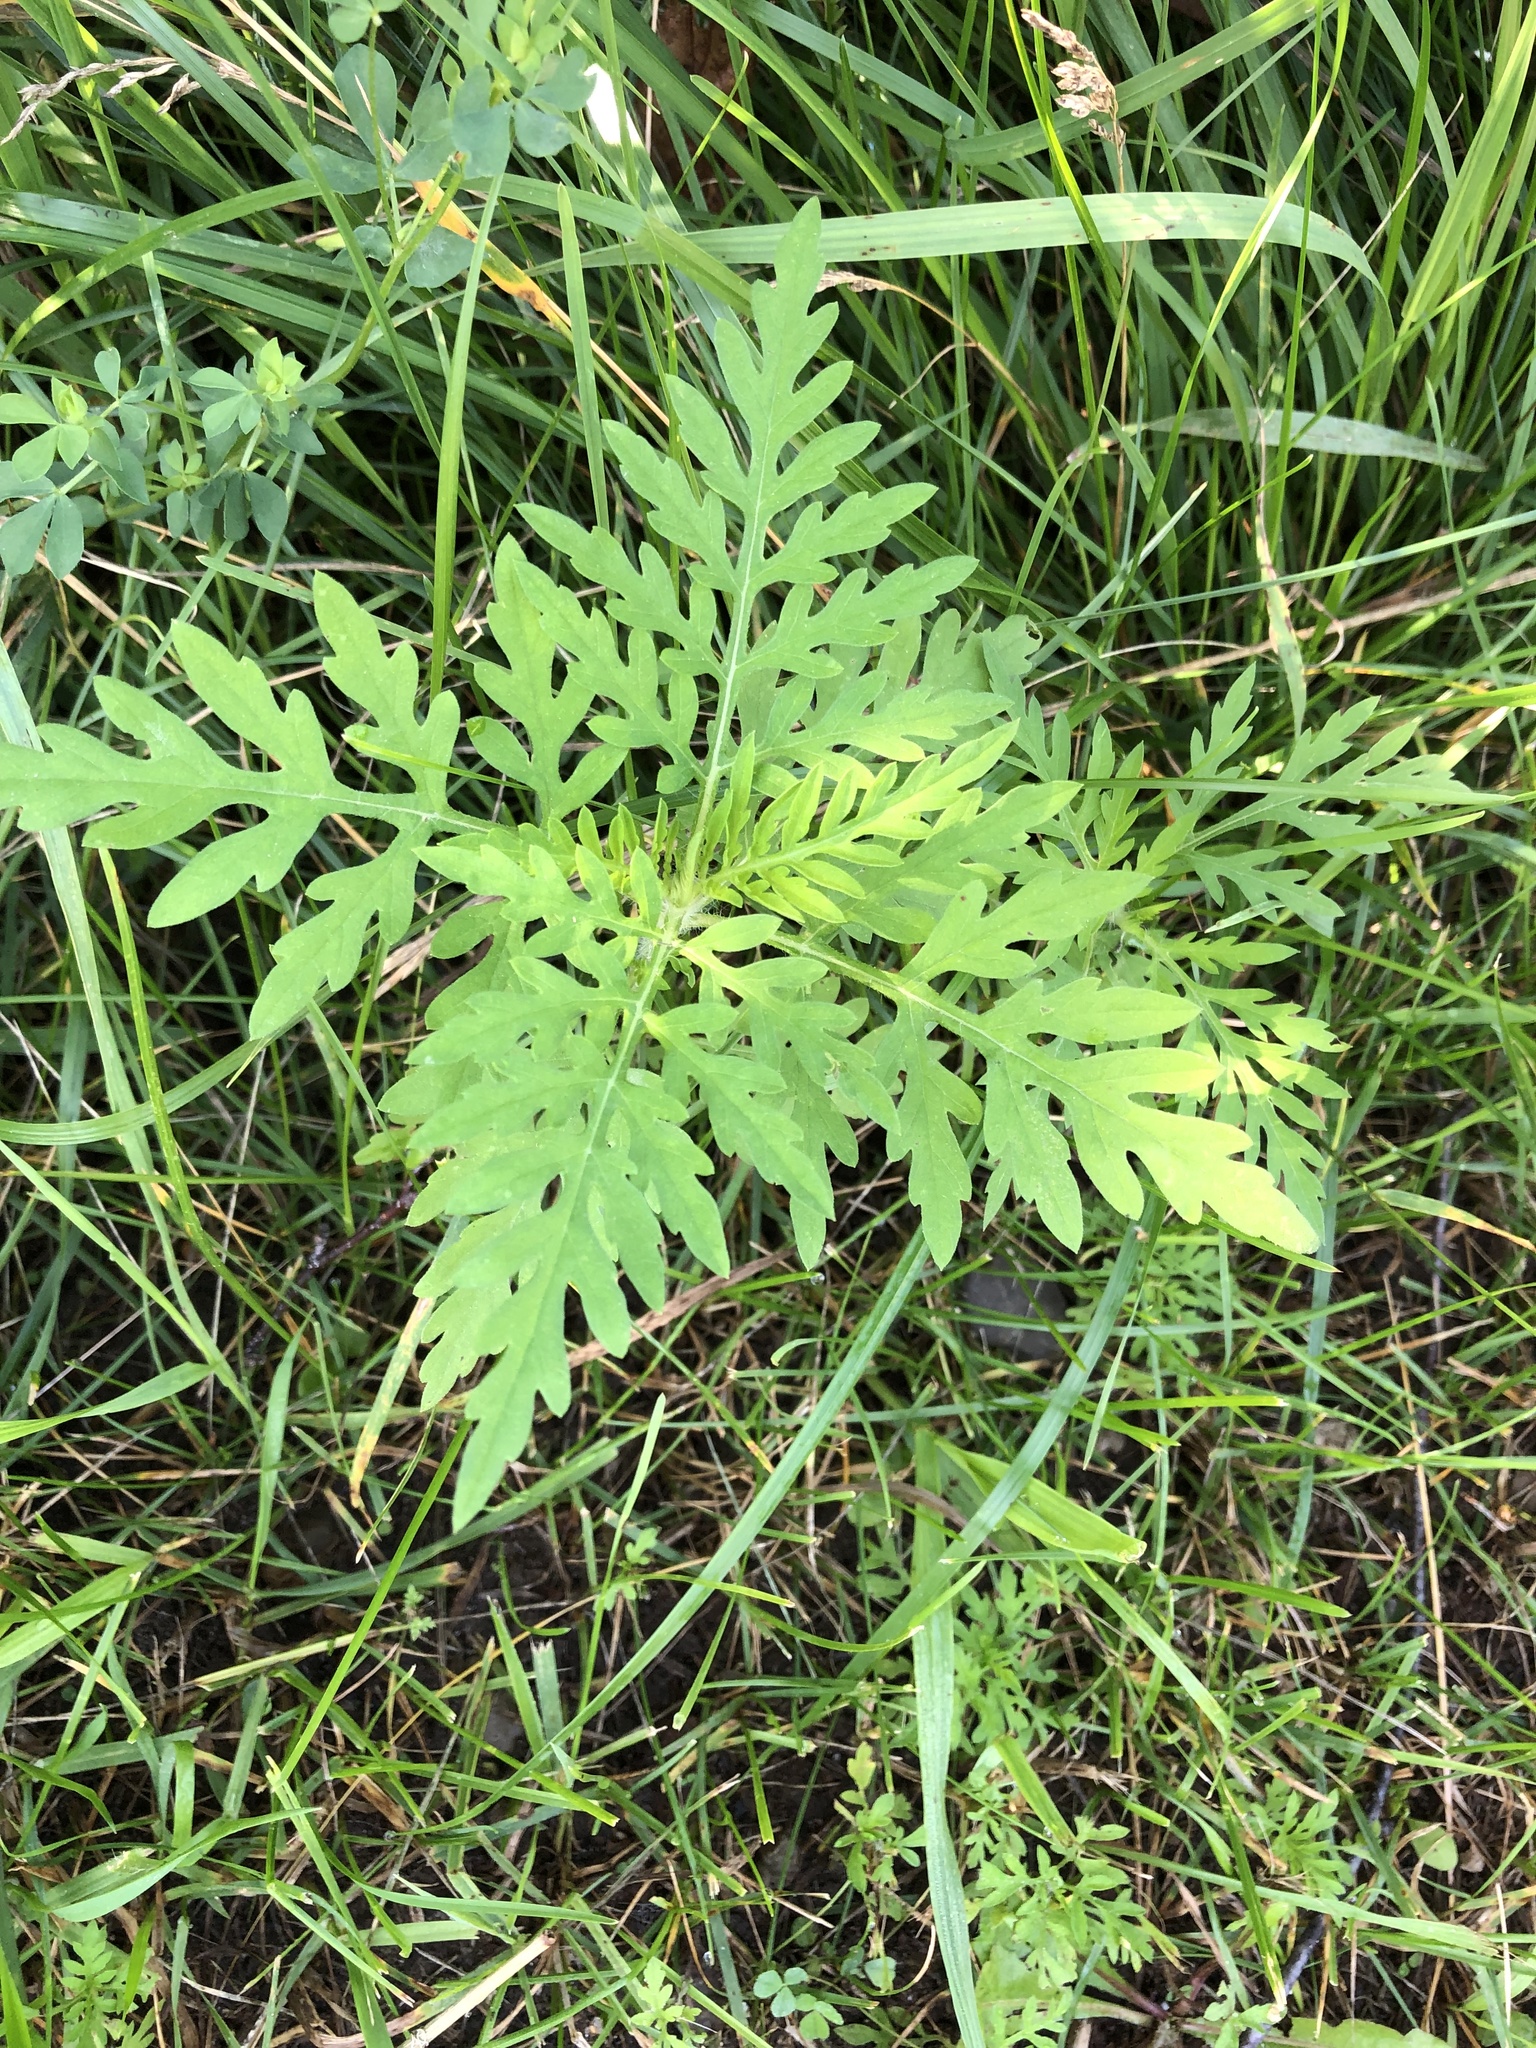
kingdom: Plantae
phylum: Tracheophyta
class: Magnoliopsida
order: Asterales
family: Asteraceae
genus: Ambrosia
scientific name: Ambrosia artemisiifolia
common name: Annual ragweed
